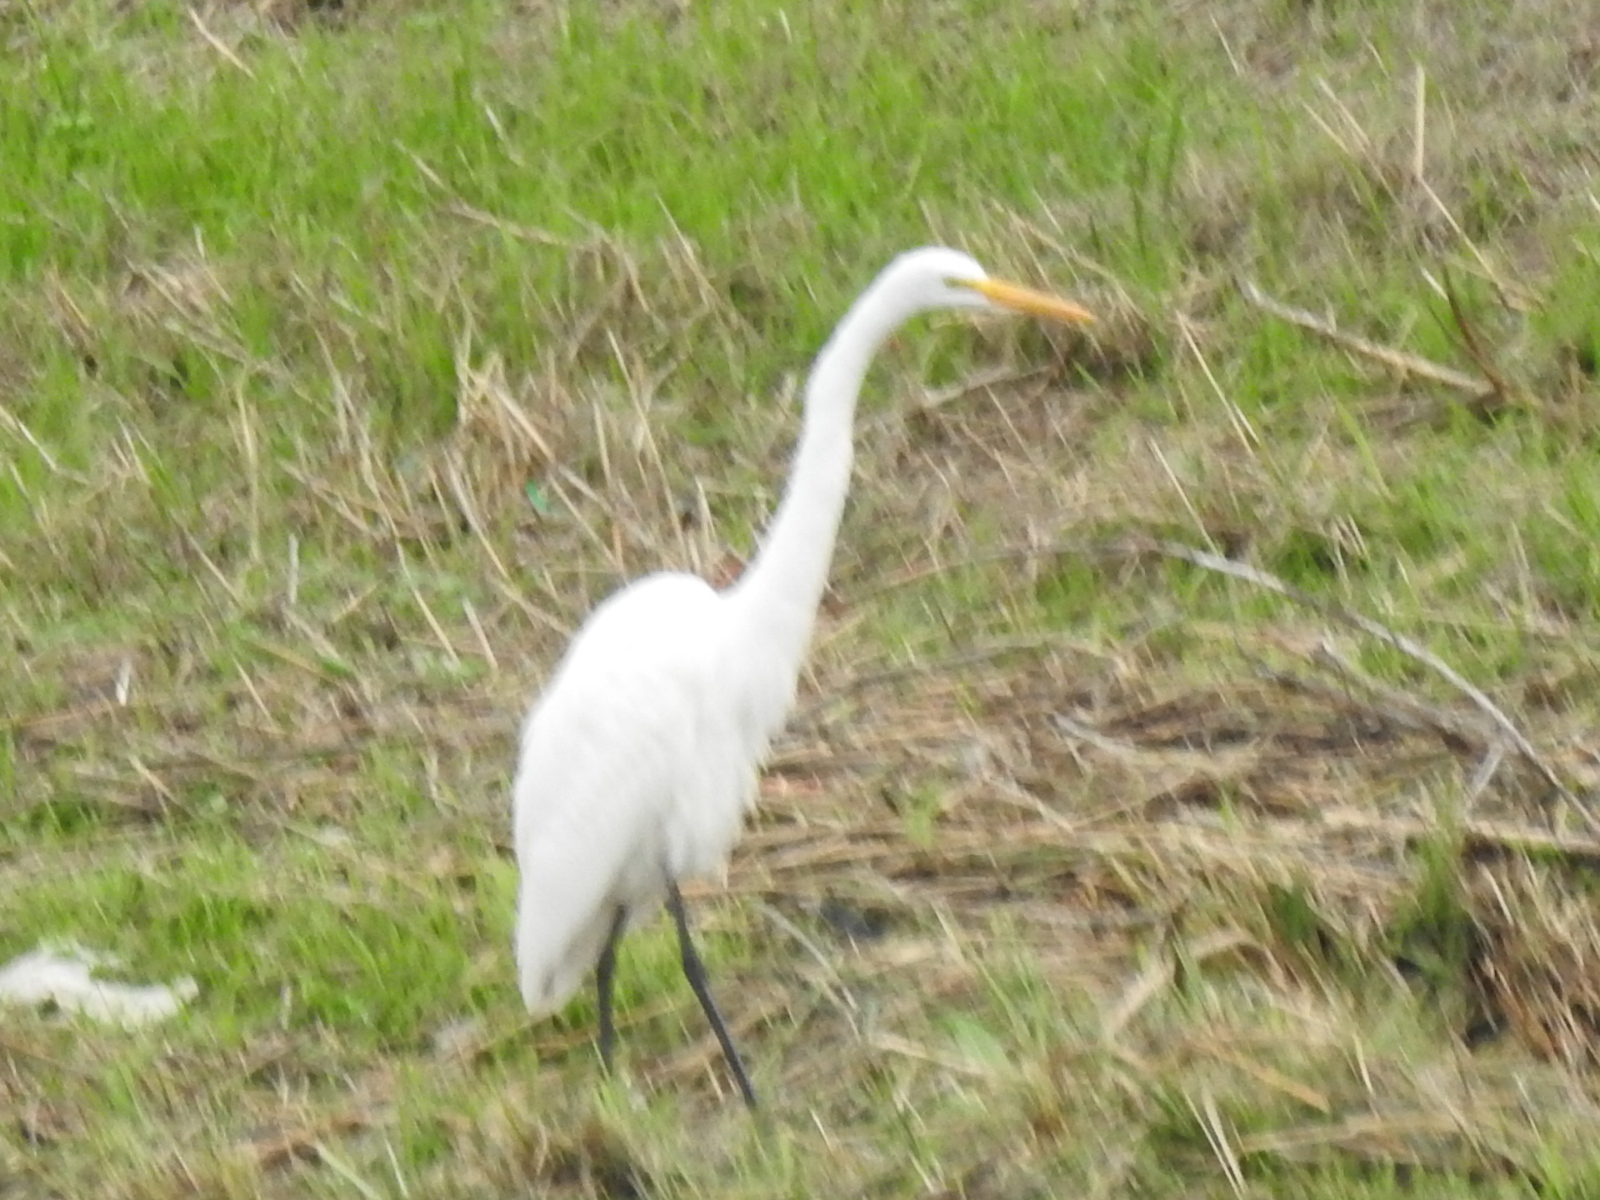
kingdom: Animalia
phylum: Chordata
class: Aves
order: Pelecaniformes
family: Ardeidae
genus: Ardea
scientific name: Ardea alba
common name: Great egret
